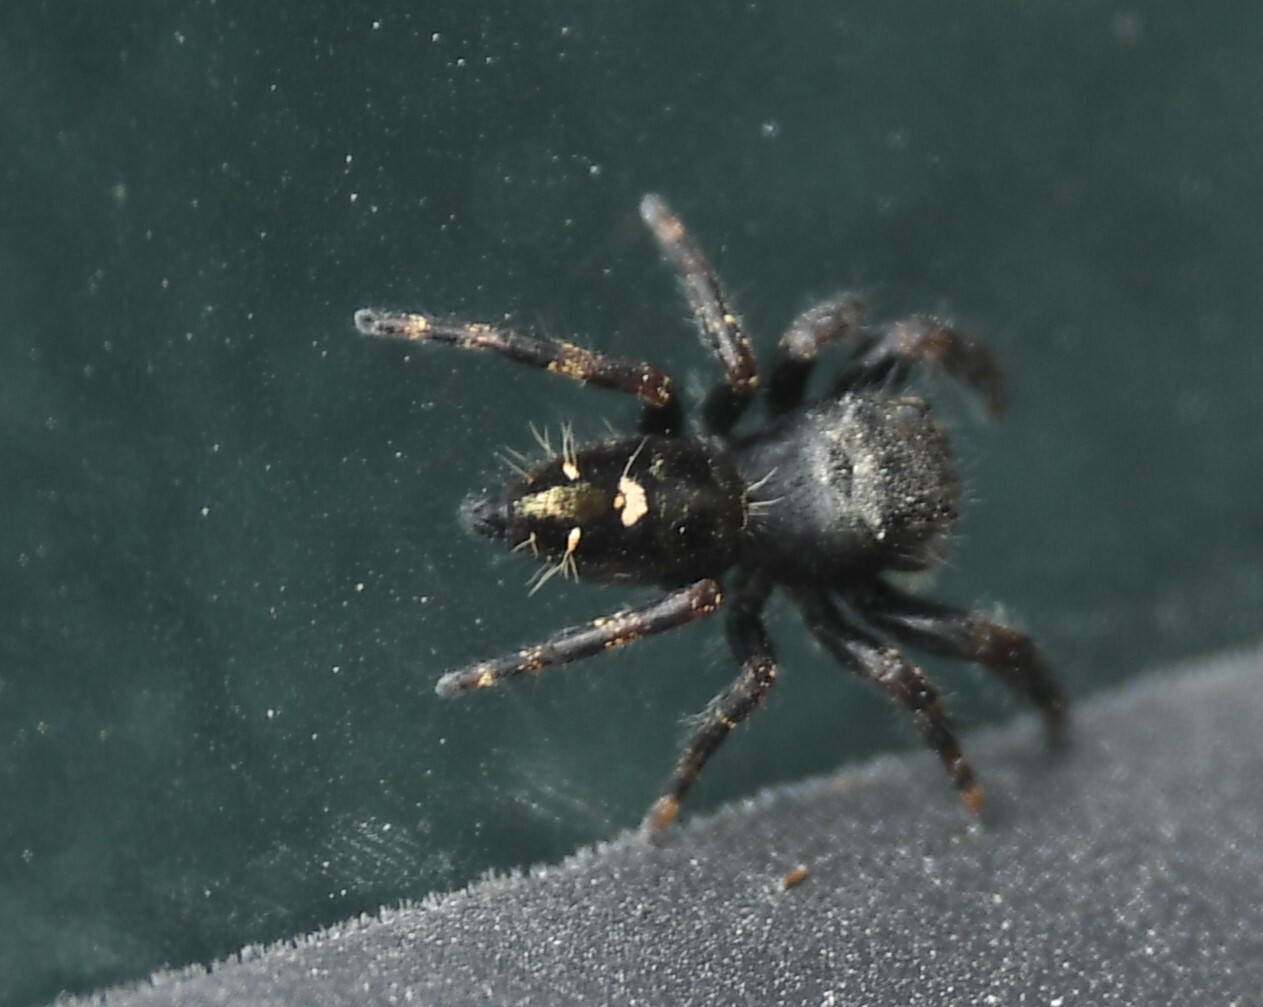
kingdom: Animalia
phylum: Arthropoda
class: Arachnida
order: Araneae
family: Salticidae
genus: Phidippus
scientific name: Phidippus audax
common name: Bold jumper
